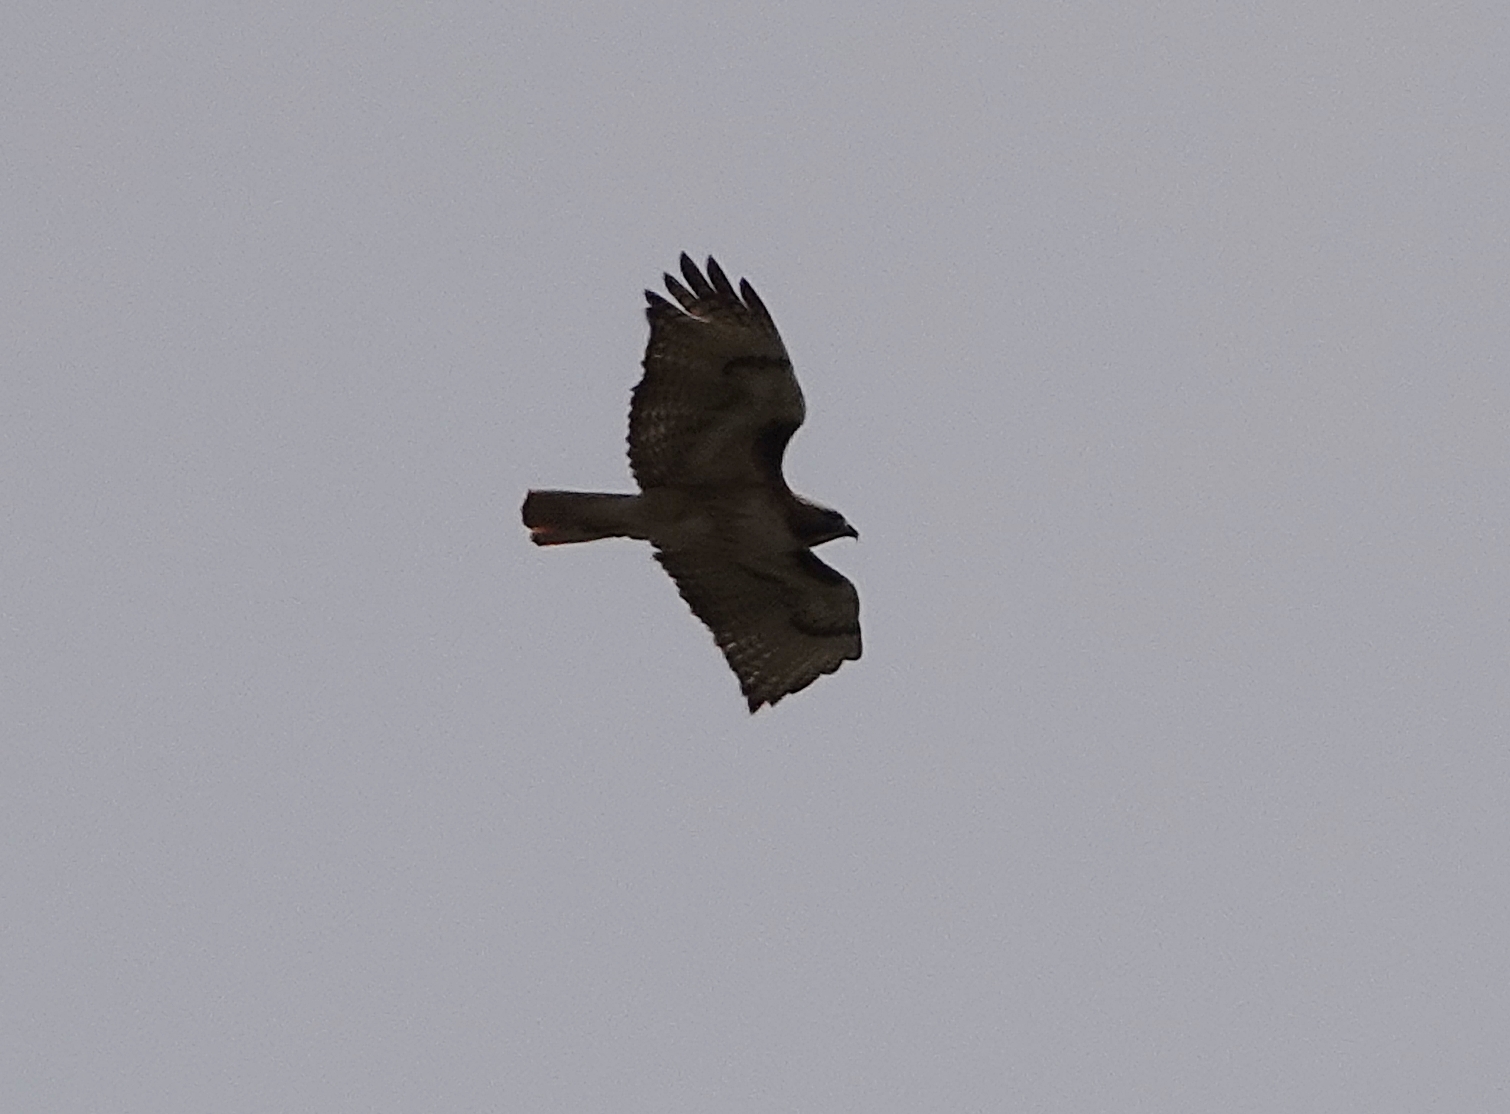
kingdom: Animalia
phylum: Chordata
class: Aves
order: Accipitriformes
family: Accipitridae
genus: Buteo
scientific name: Buteo jamaicensis
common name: Red-tailed hawk
